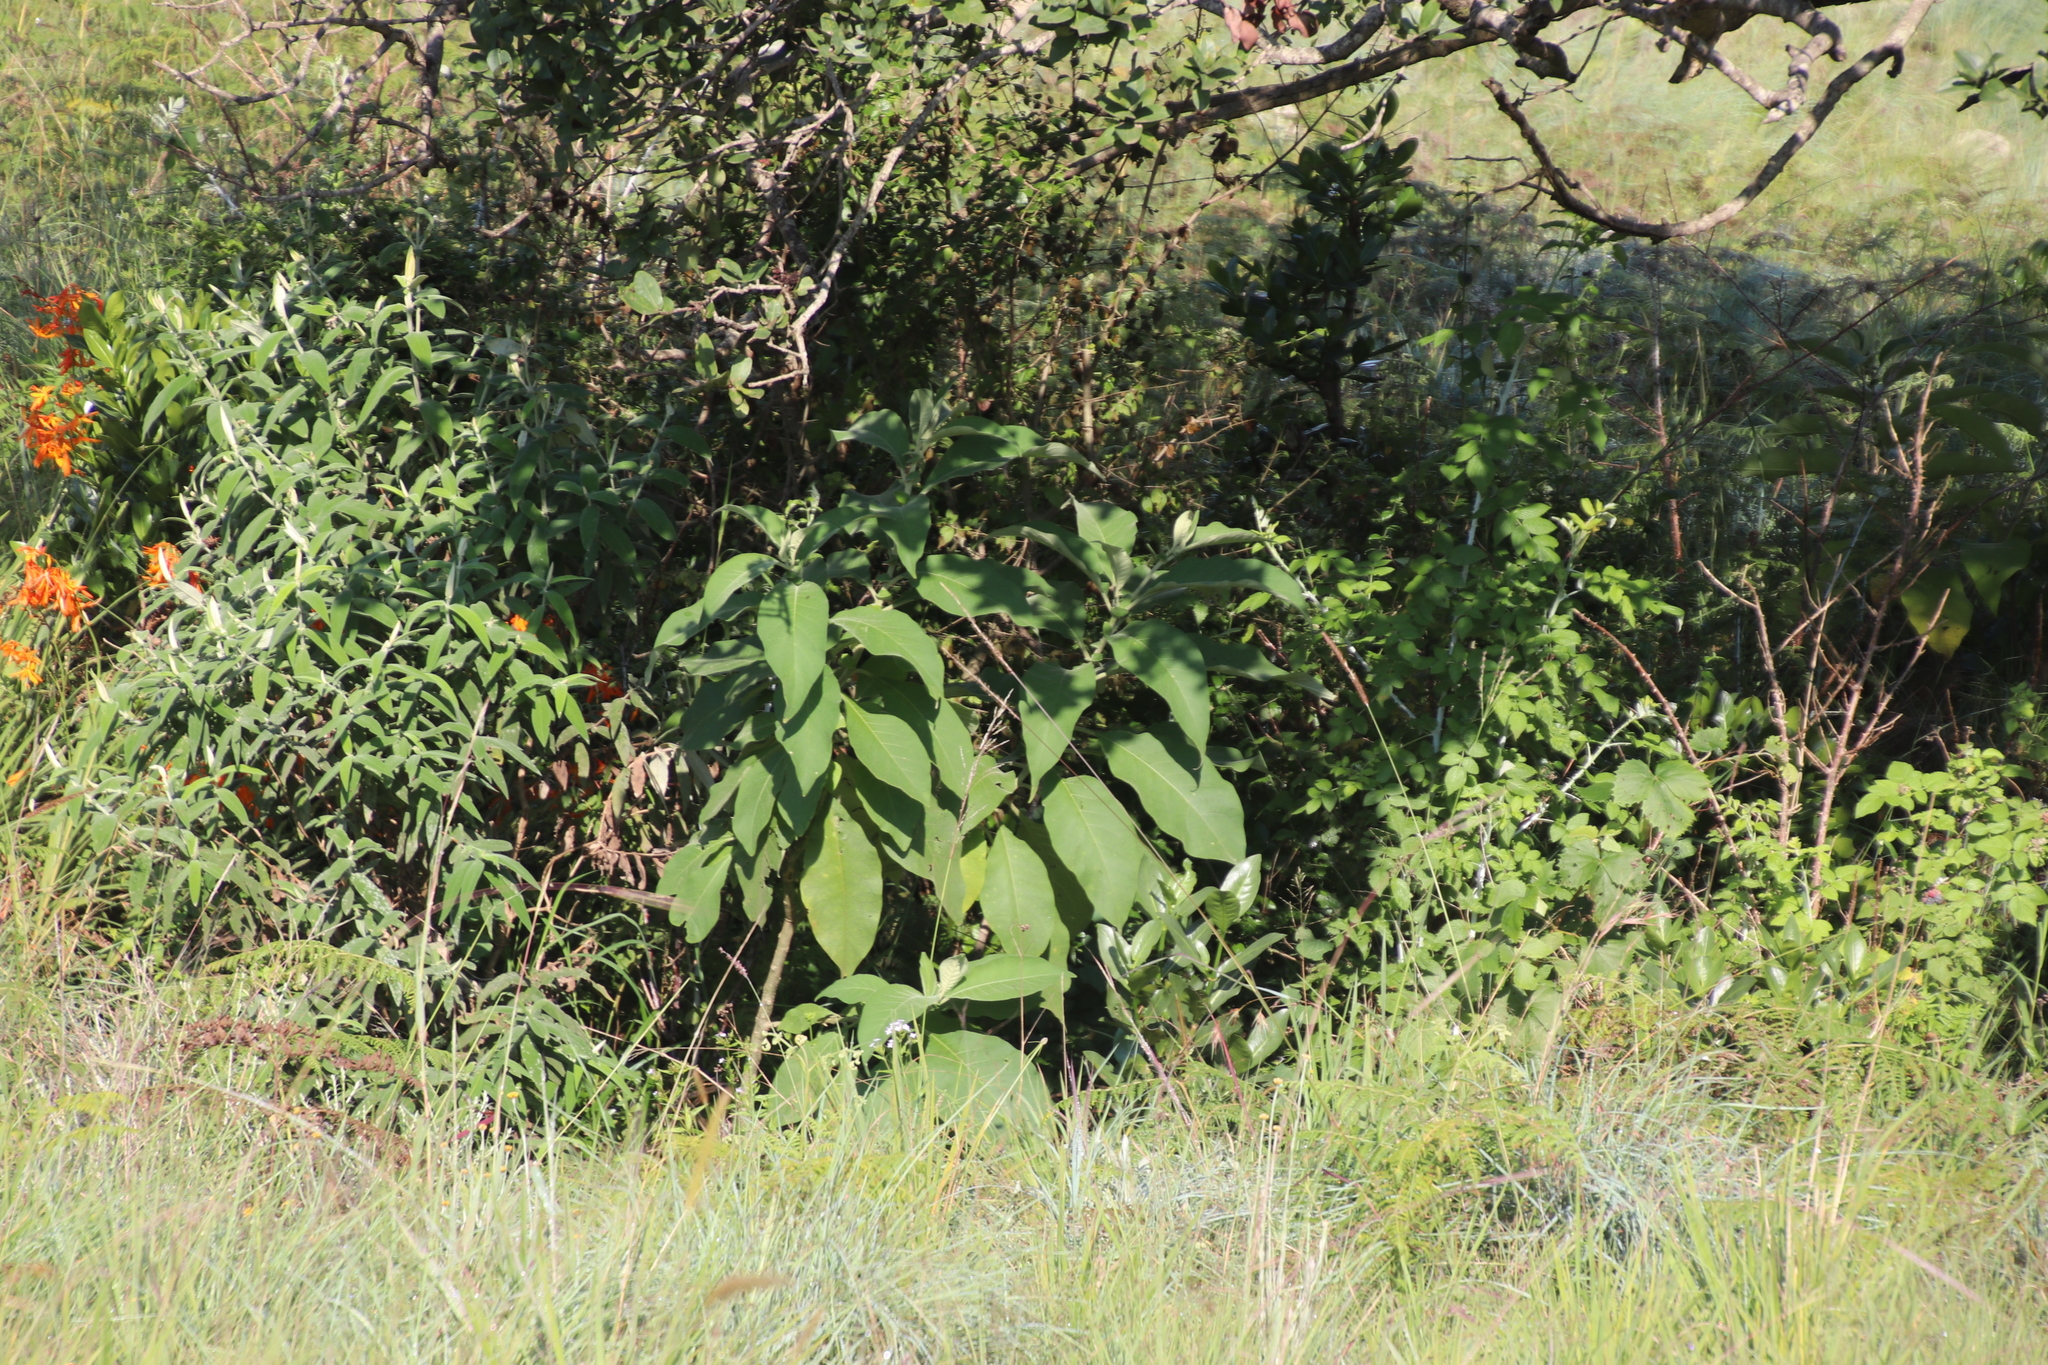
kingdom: Plantae
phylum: Tracheophyta
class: Magnoliopsida
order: Solanales
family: Solanaceae
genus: Solanum
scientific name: Solanum mauritianum
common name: Earleaf nightshade
